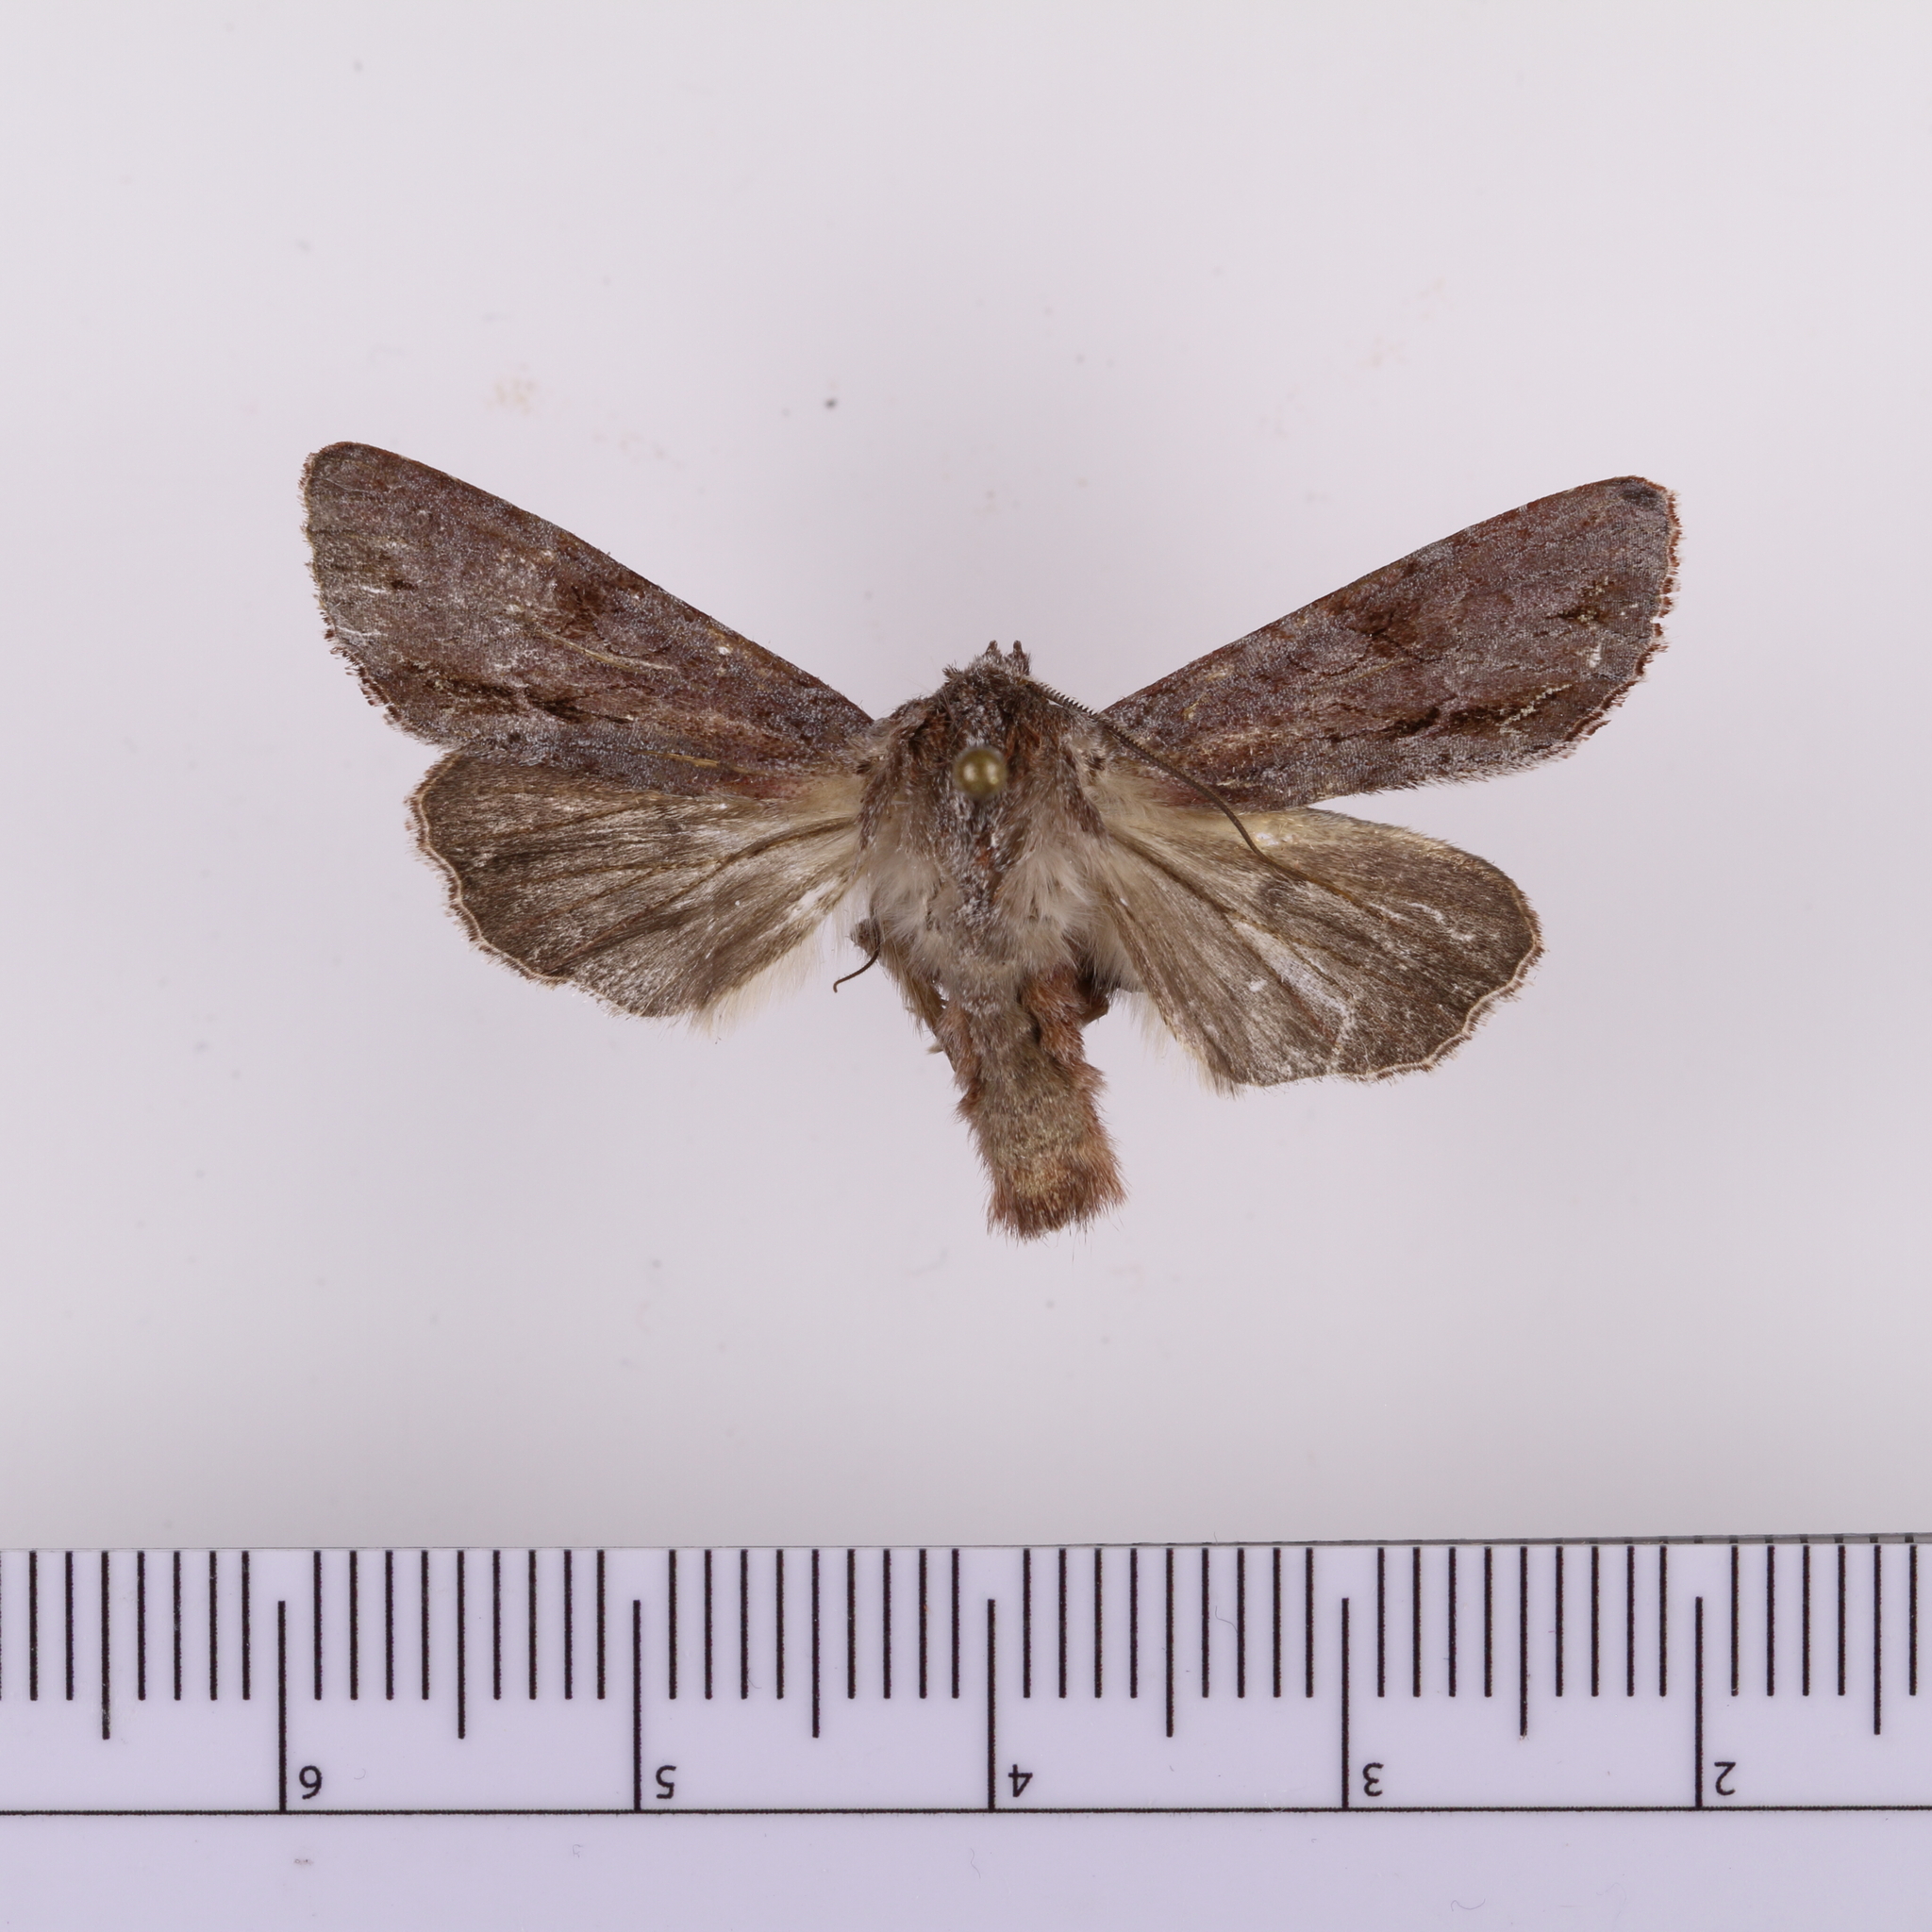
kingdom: Animalia
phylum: Arthropoda
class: Insecta
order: Lepidoptera
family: Noctuidae
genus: Ichneutica
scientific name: Ichneutica
